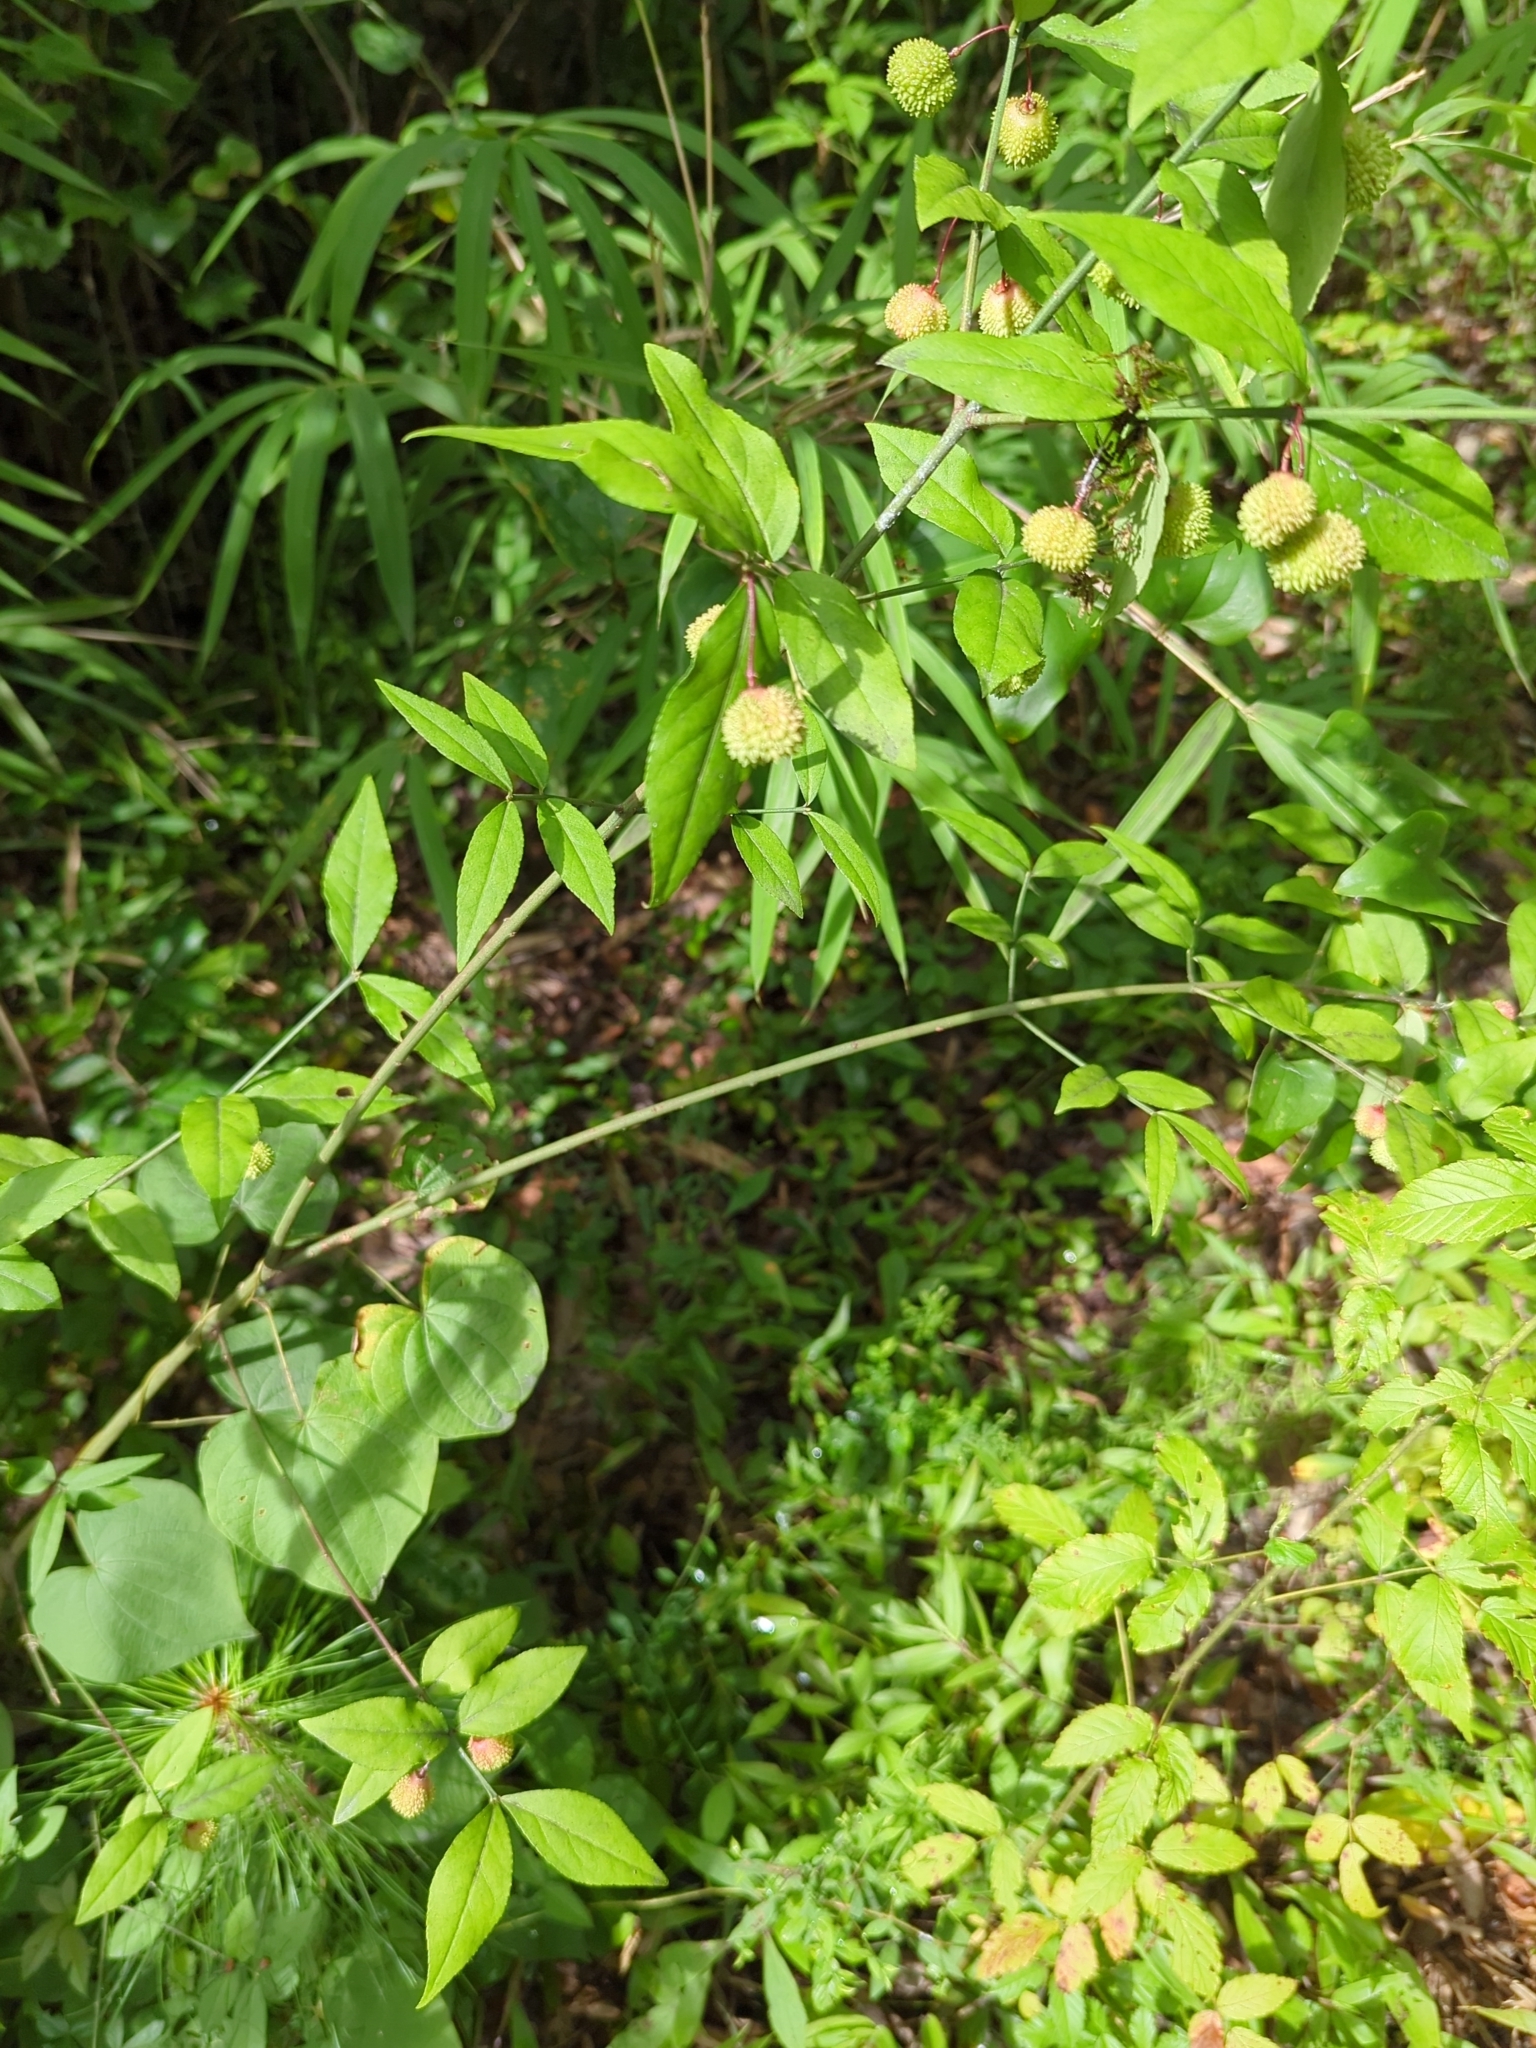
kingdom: Plantae
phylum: Tracheophyta
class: Magnoliopsida
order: Celastrales
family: Celastraceae
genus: Euonymus
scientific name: Euonymus americanus
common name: Bursting-heart
